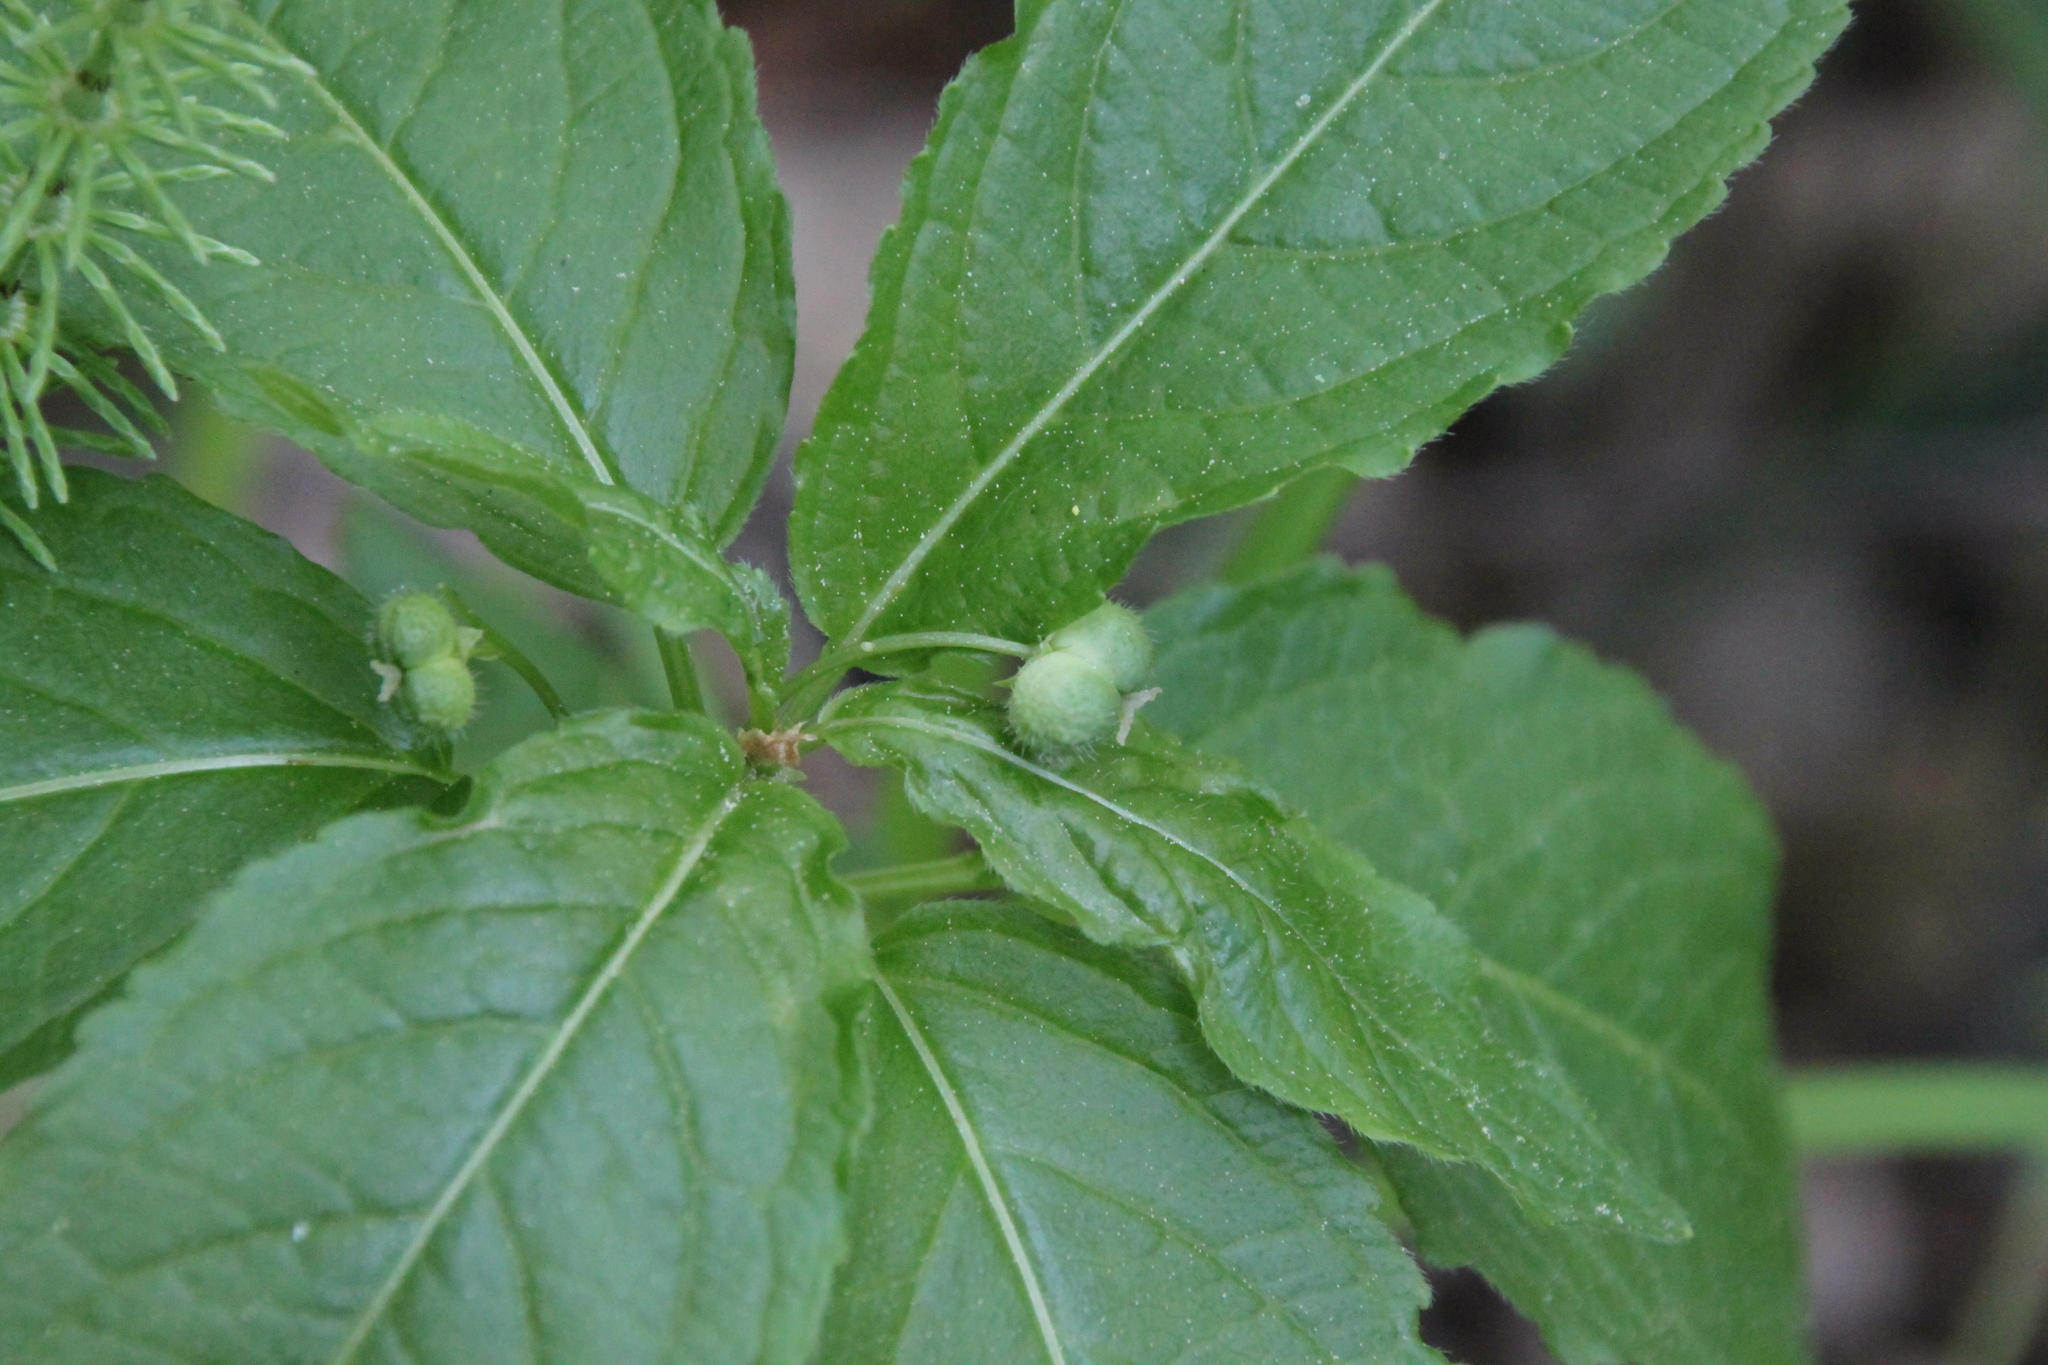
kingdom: Plantae
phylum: Tracheophyta
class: Magnoliopsida
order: Malpighiales
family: Euphorbiaceae
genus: Mercurialis
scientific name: Mercurialis perennis
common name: Dog mercury
